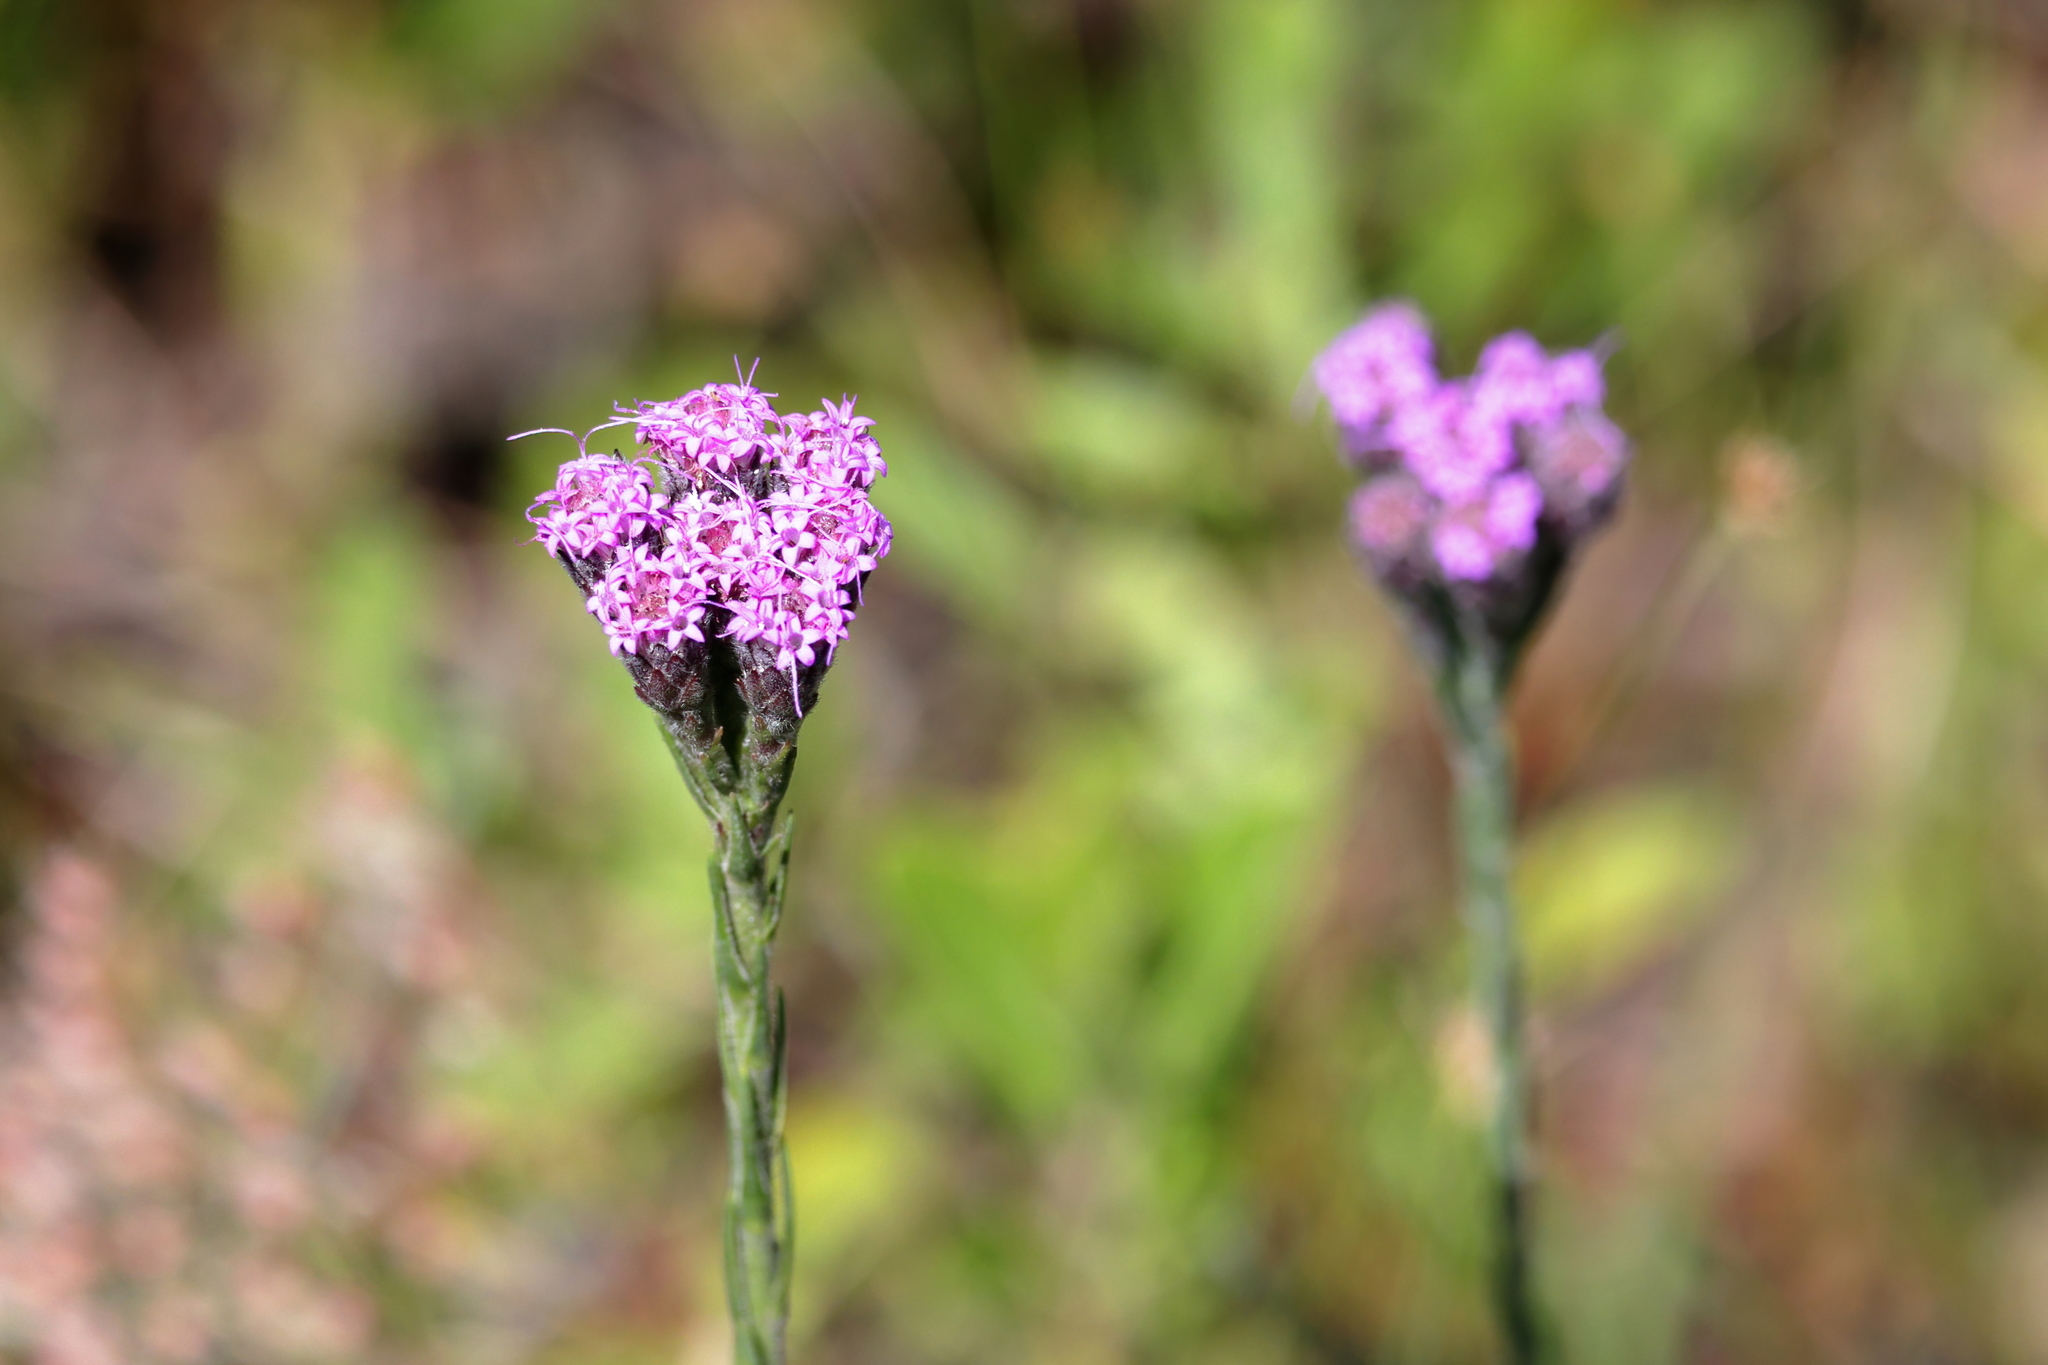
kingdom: Plantae
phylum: Tracheophyta
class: Magnoliopsida
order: Asterales
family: Asteraceae
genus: Carphephorus
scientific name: Carphephorus pseudoliatris
